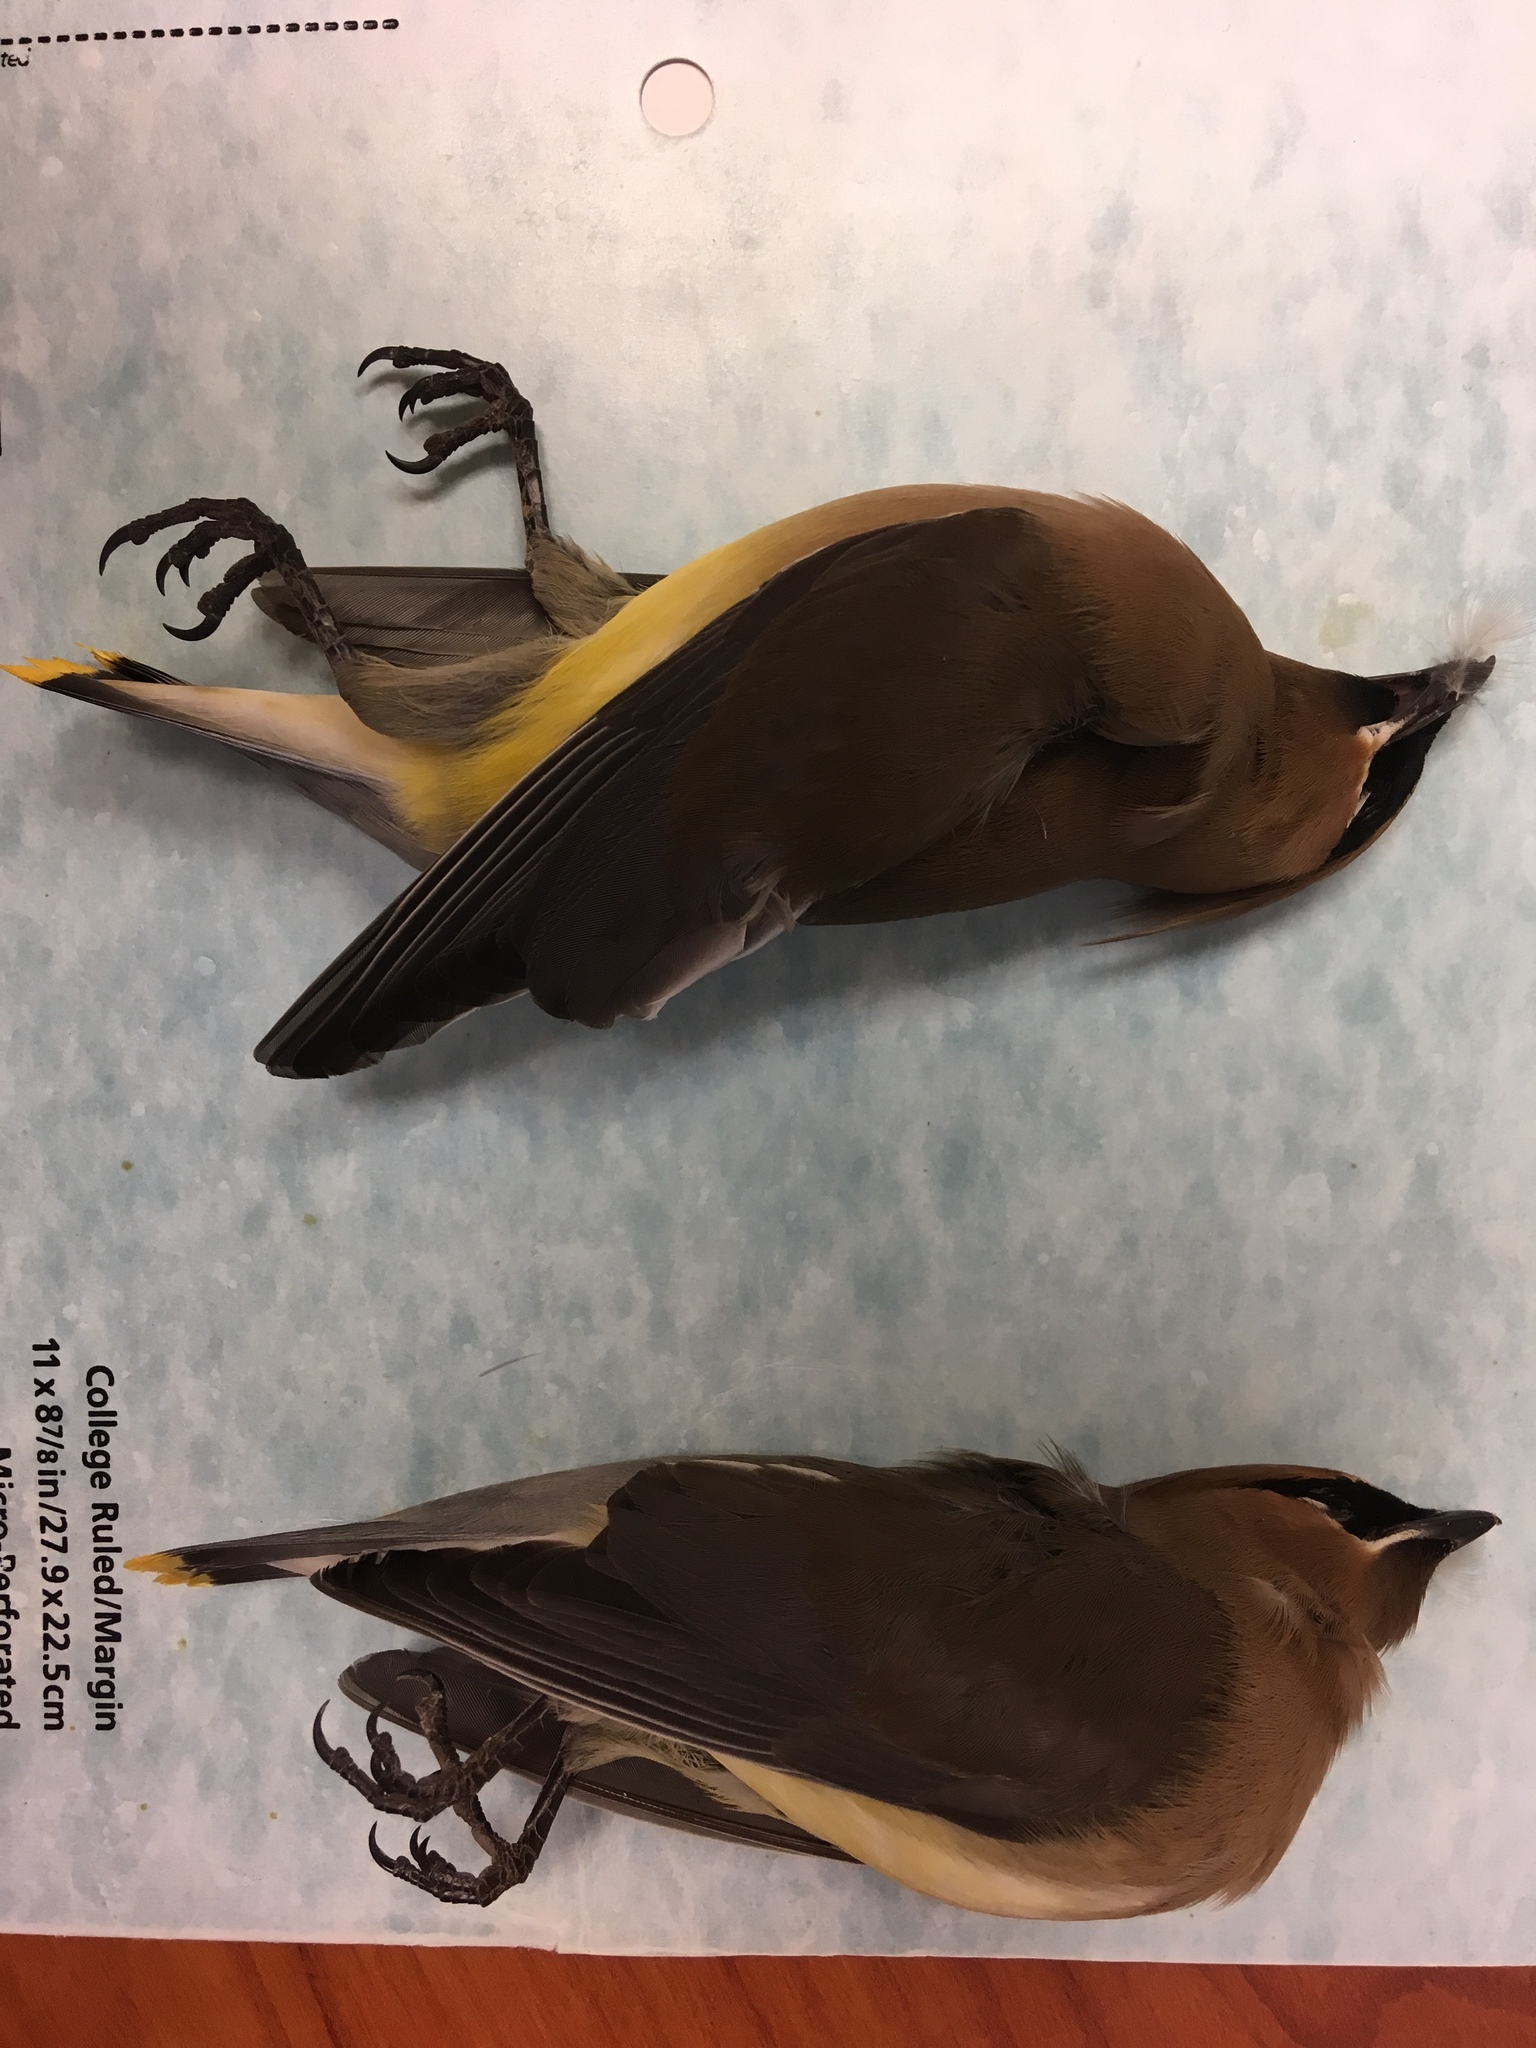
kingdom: Animalia
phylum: Chordata
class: Aves
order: Passeriformes
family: Bombycillidae
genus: Bombycilla
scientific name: Bombycilla cedrorum
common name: Cedar waxwing
